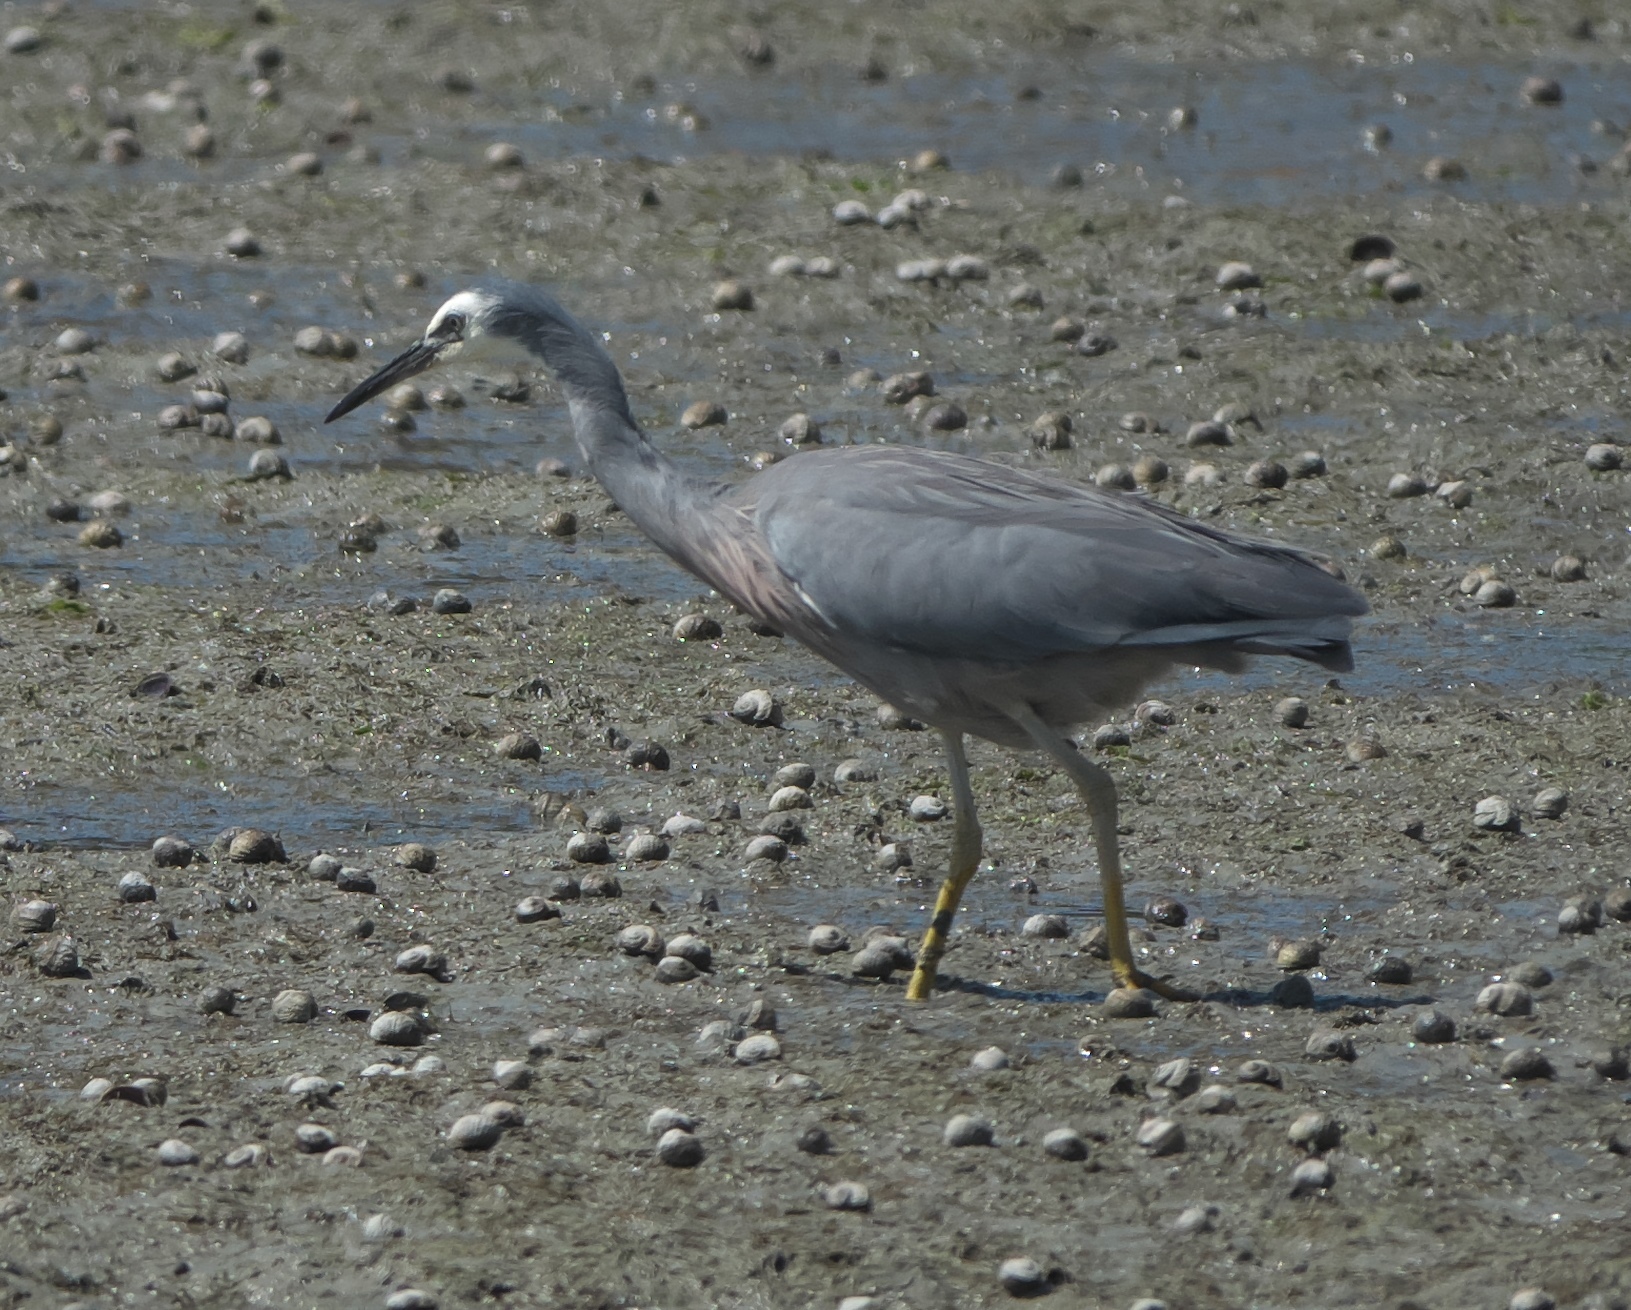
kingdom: Animalia
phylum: Chordata
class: Aves
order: Pelecaniformes
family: Ardeidae
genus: Egretta
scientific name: Egretta novaehollandiae
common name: White-faced heron
